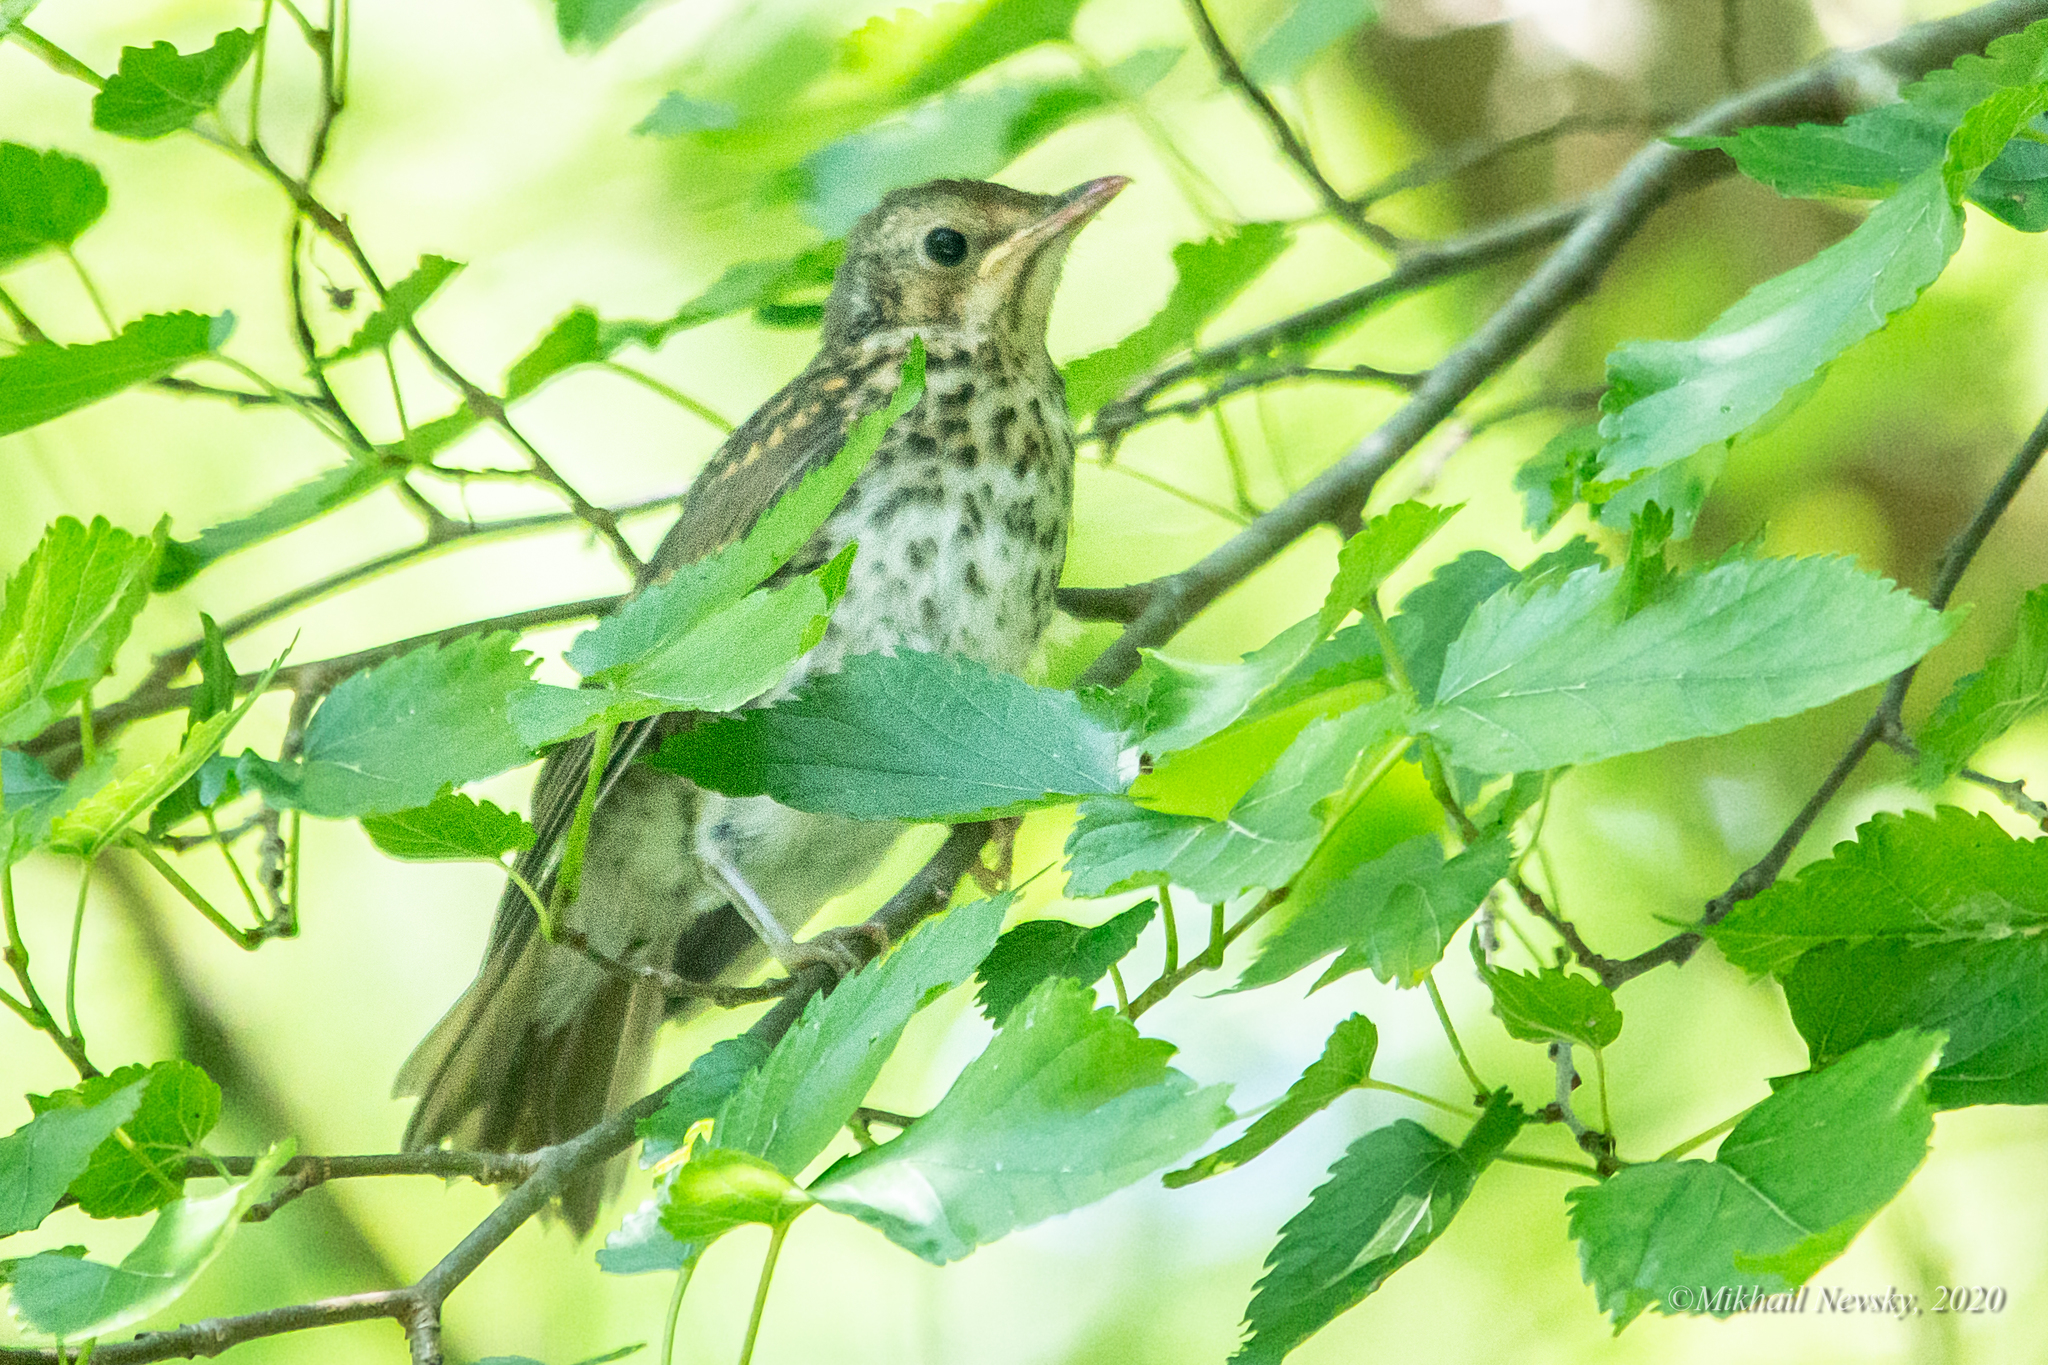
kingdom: Animalia
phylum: Chordata
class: Aves
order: Passeriformes
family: Turdidae
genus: Turdus
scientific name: Turdus philomelos
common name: Song thrush
